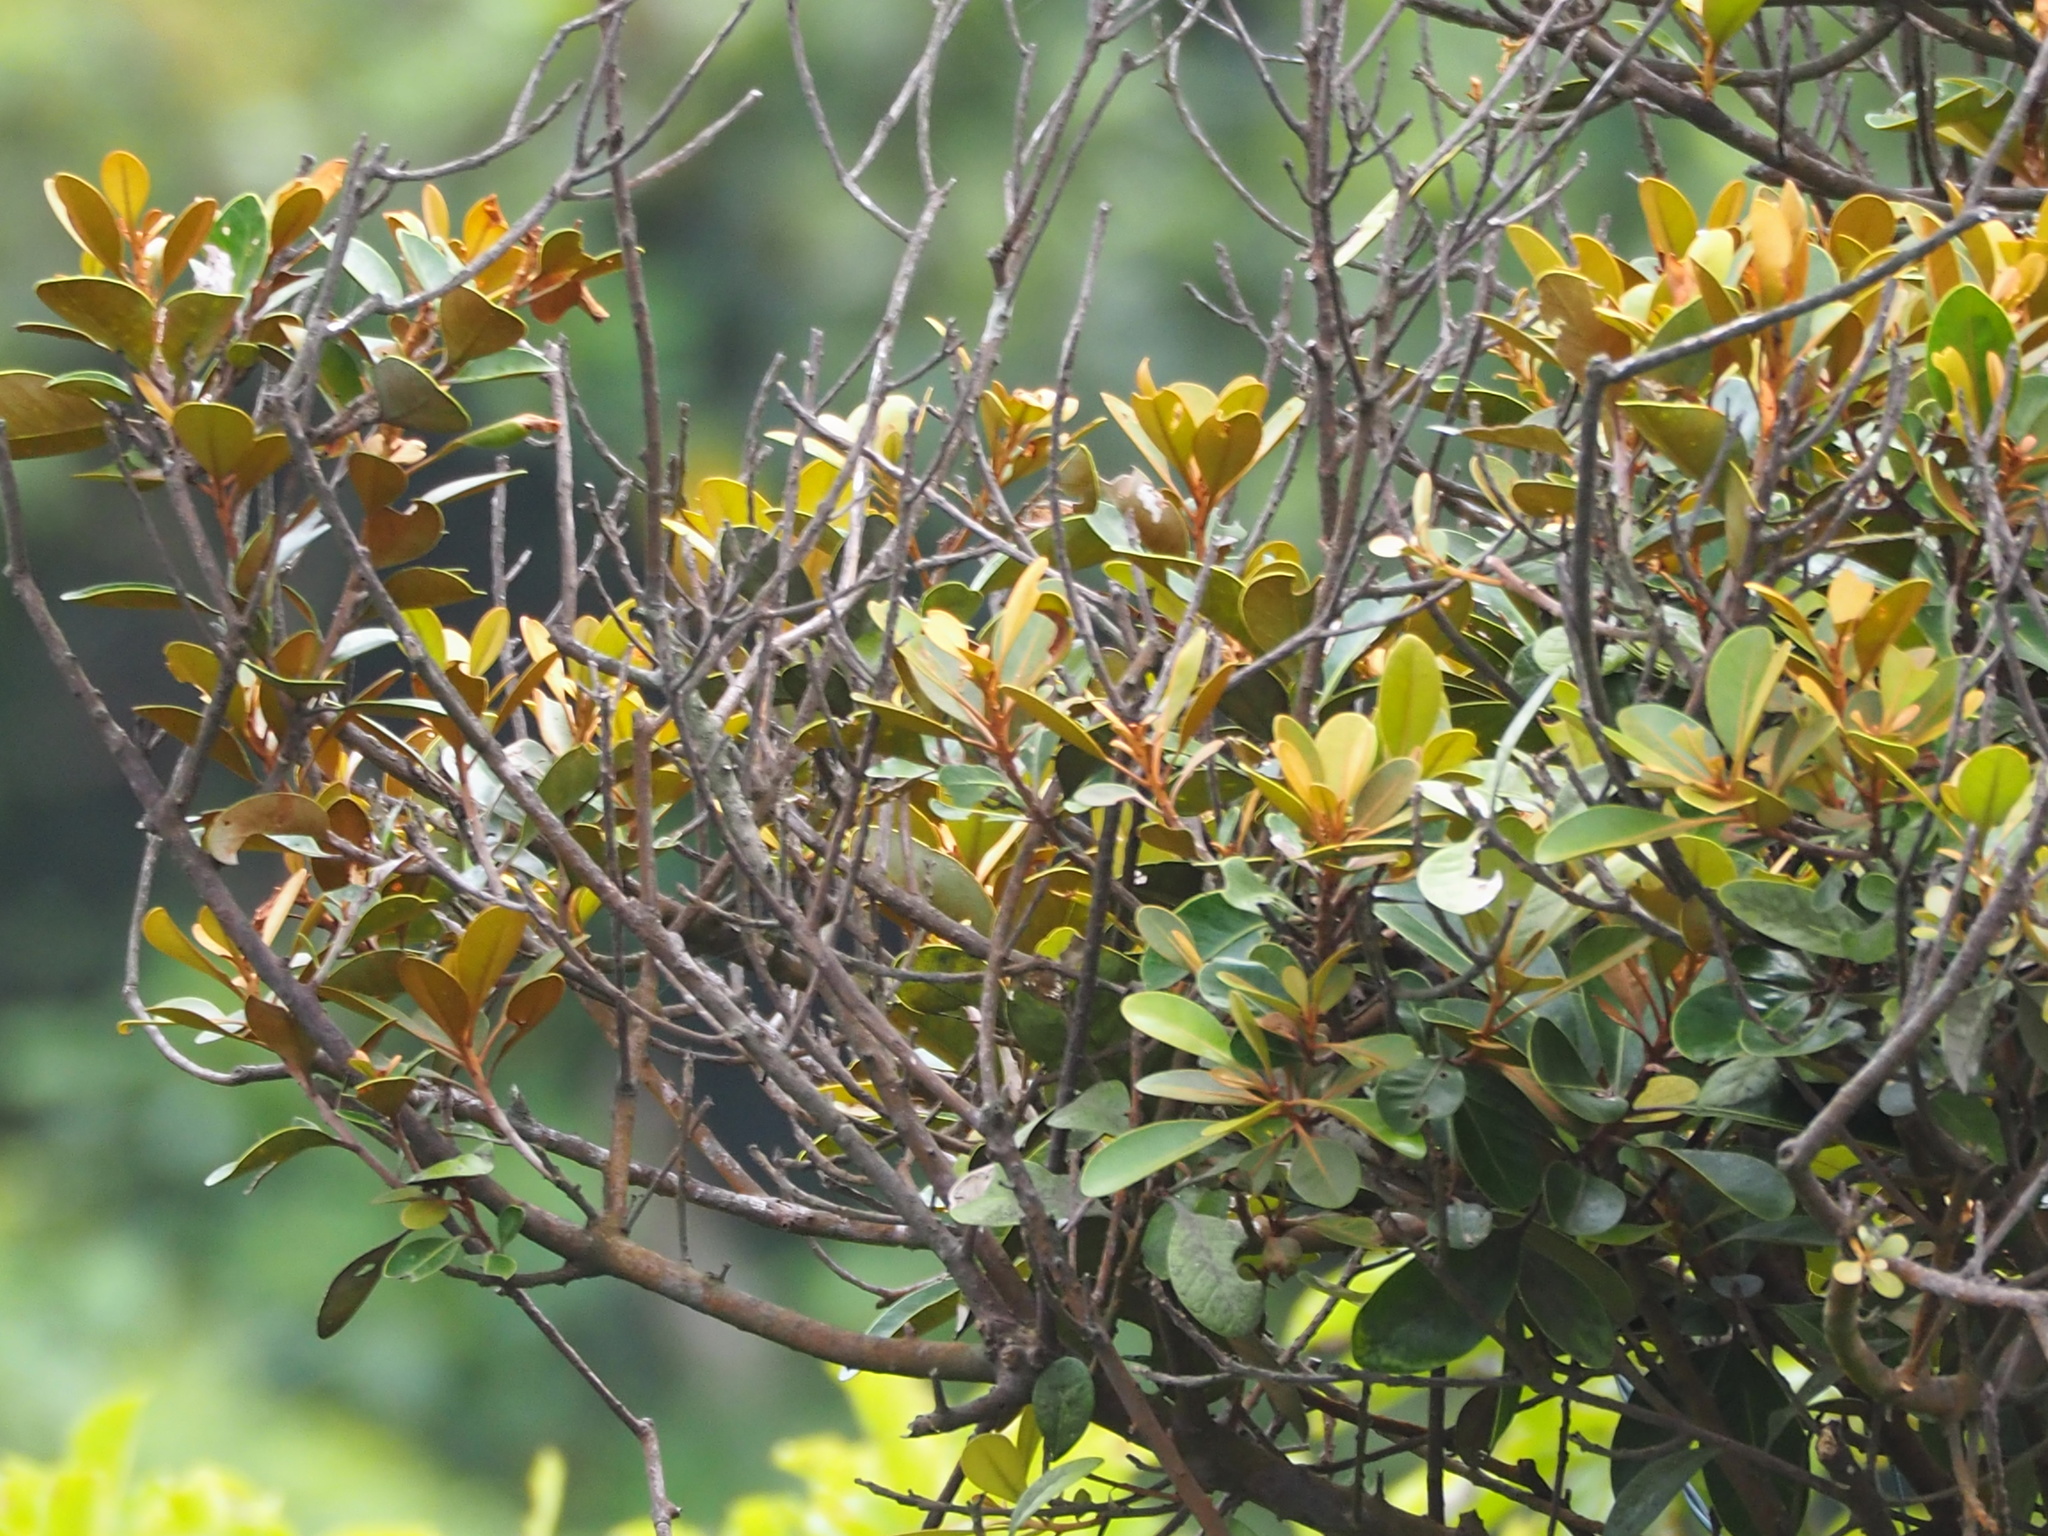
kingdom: Plantae
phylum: Tracheophyta
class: Magnoliopsida
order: Ericales
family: Sapotaceae
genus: Planchonella
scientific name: Planchonella obovata
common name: Black-ash
